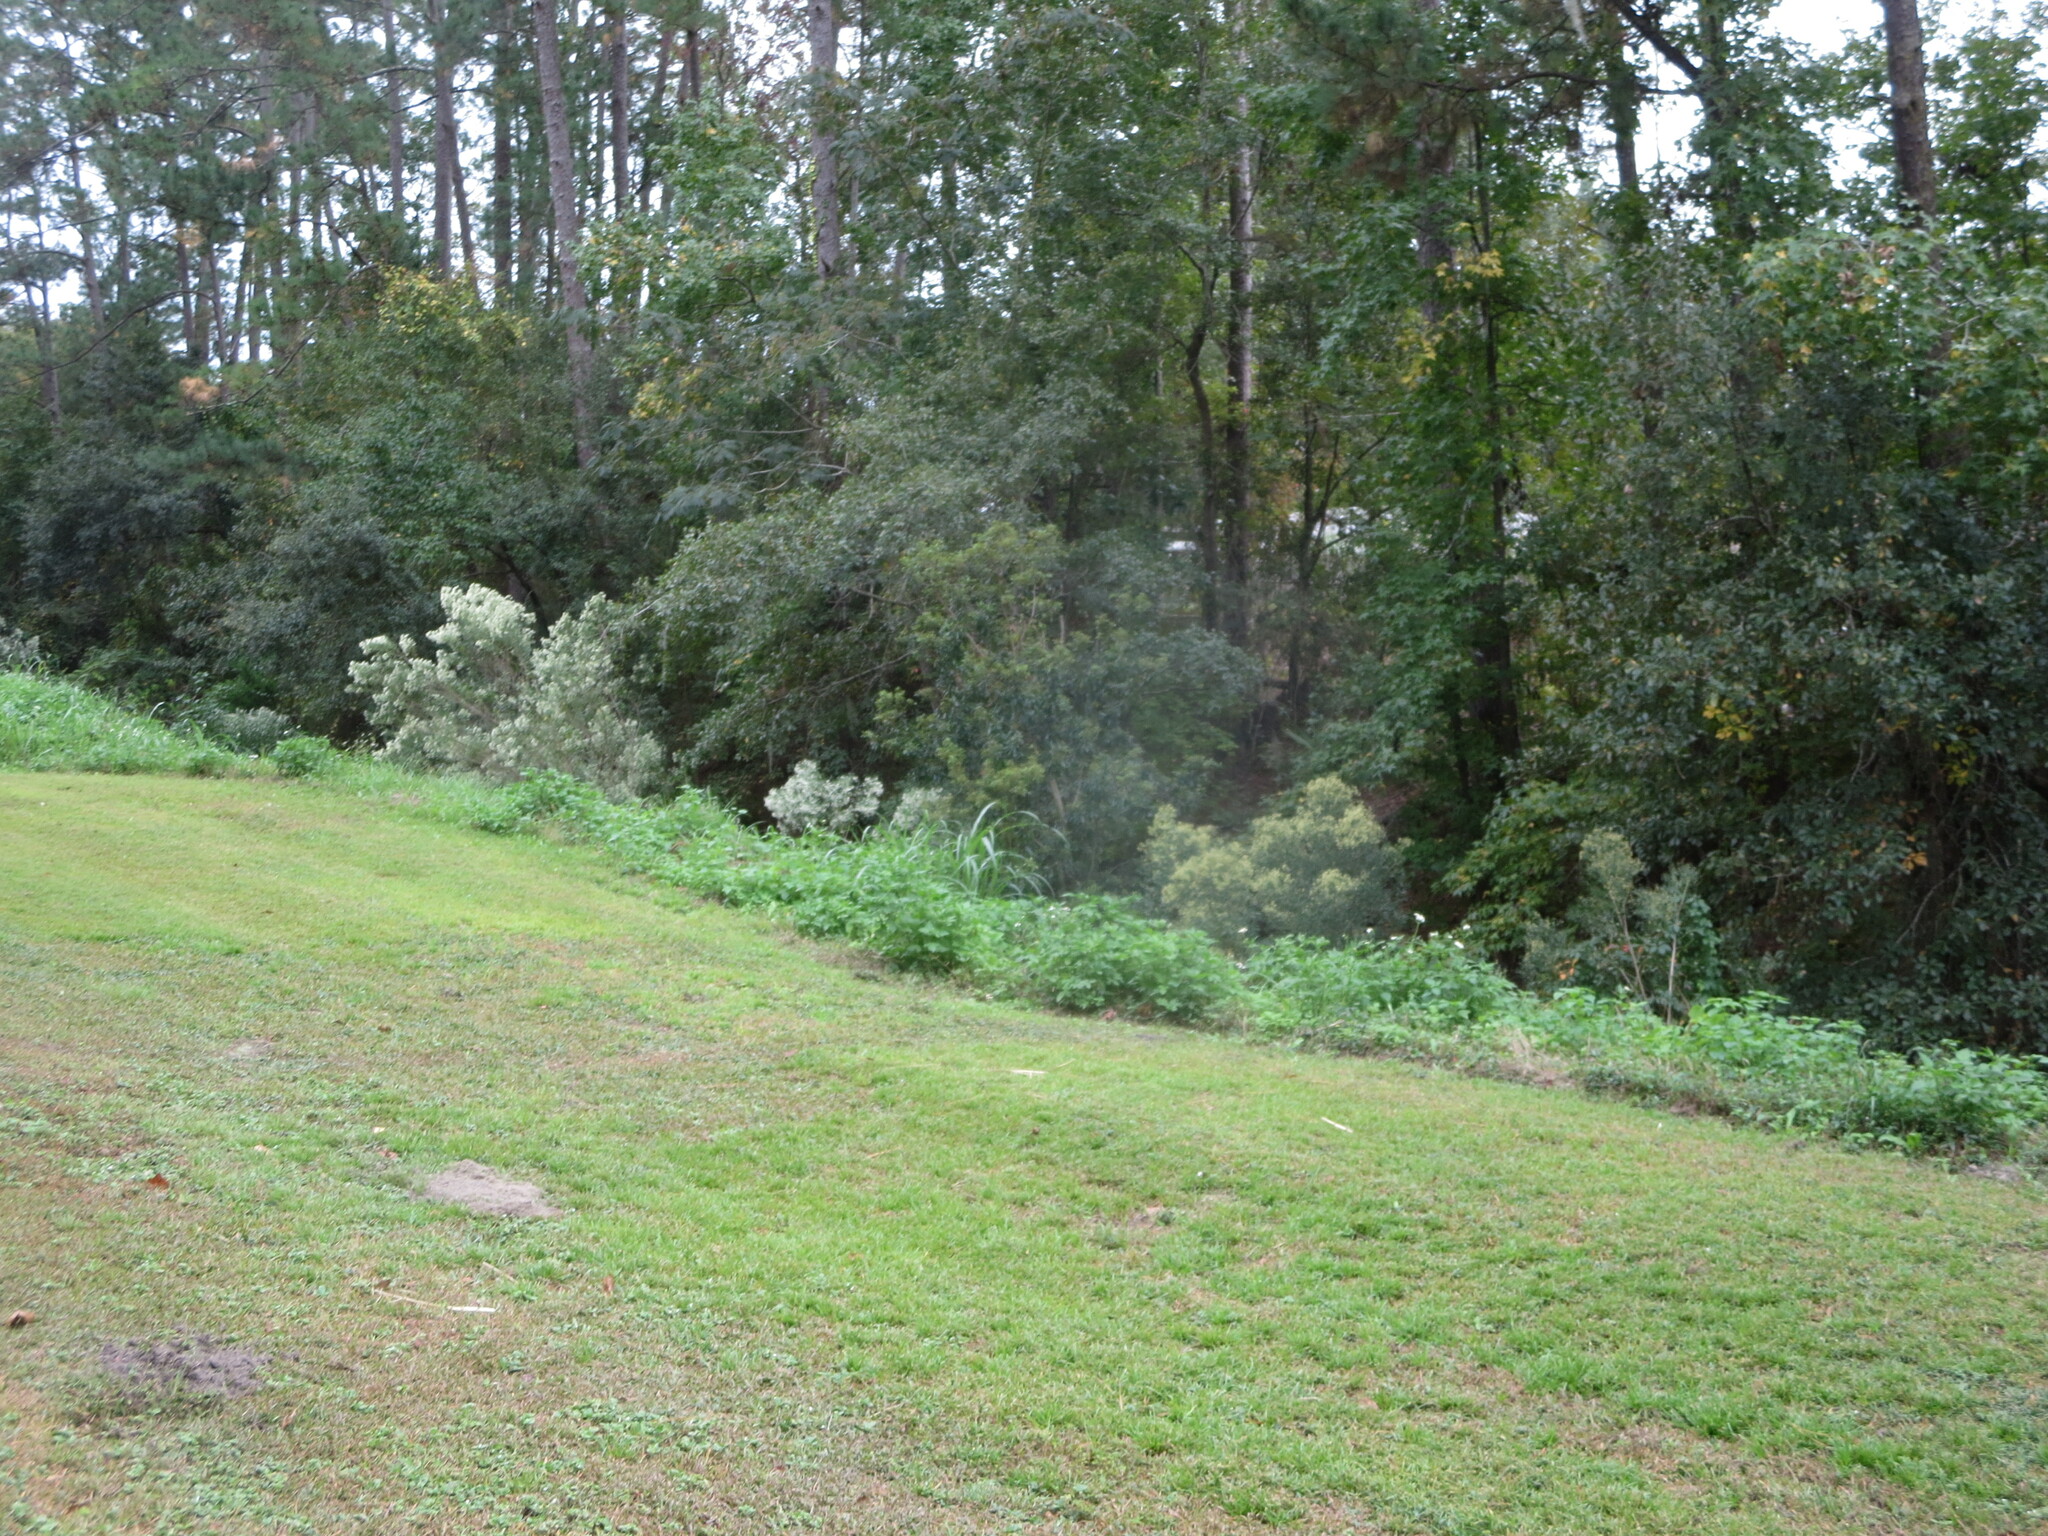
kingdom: Plantae
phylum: Tracheophyta
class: Magnoliopsida
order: Asterales
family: Asteraceae
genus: Baccharis
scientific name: Baccharis halimifolia
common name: Eastern baccharis
